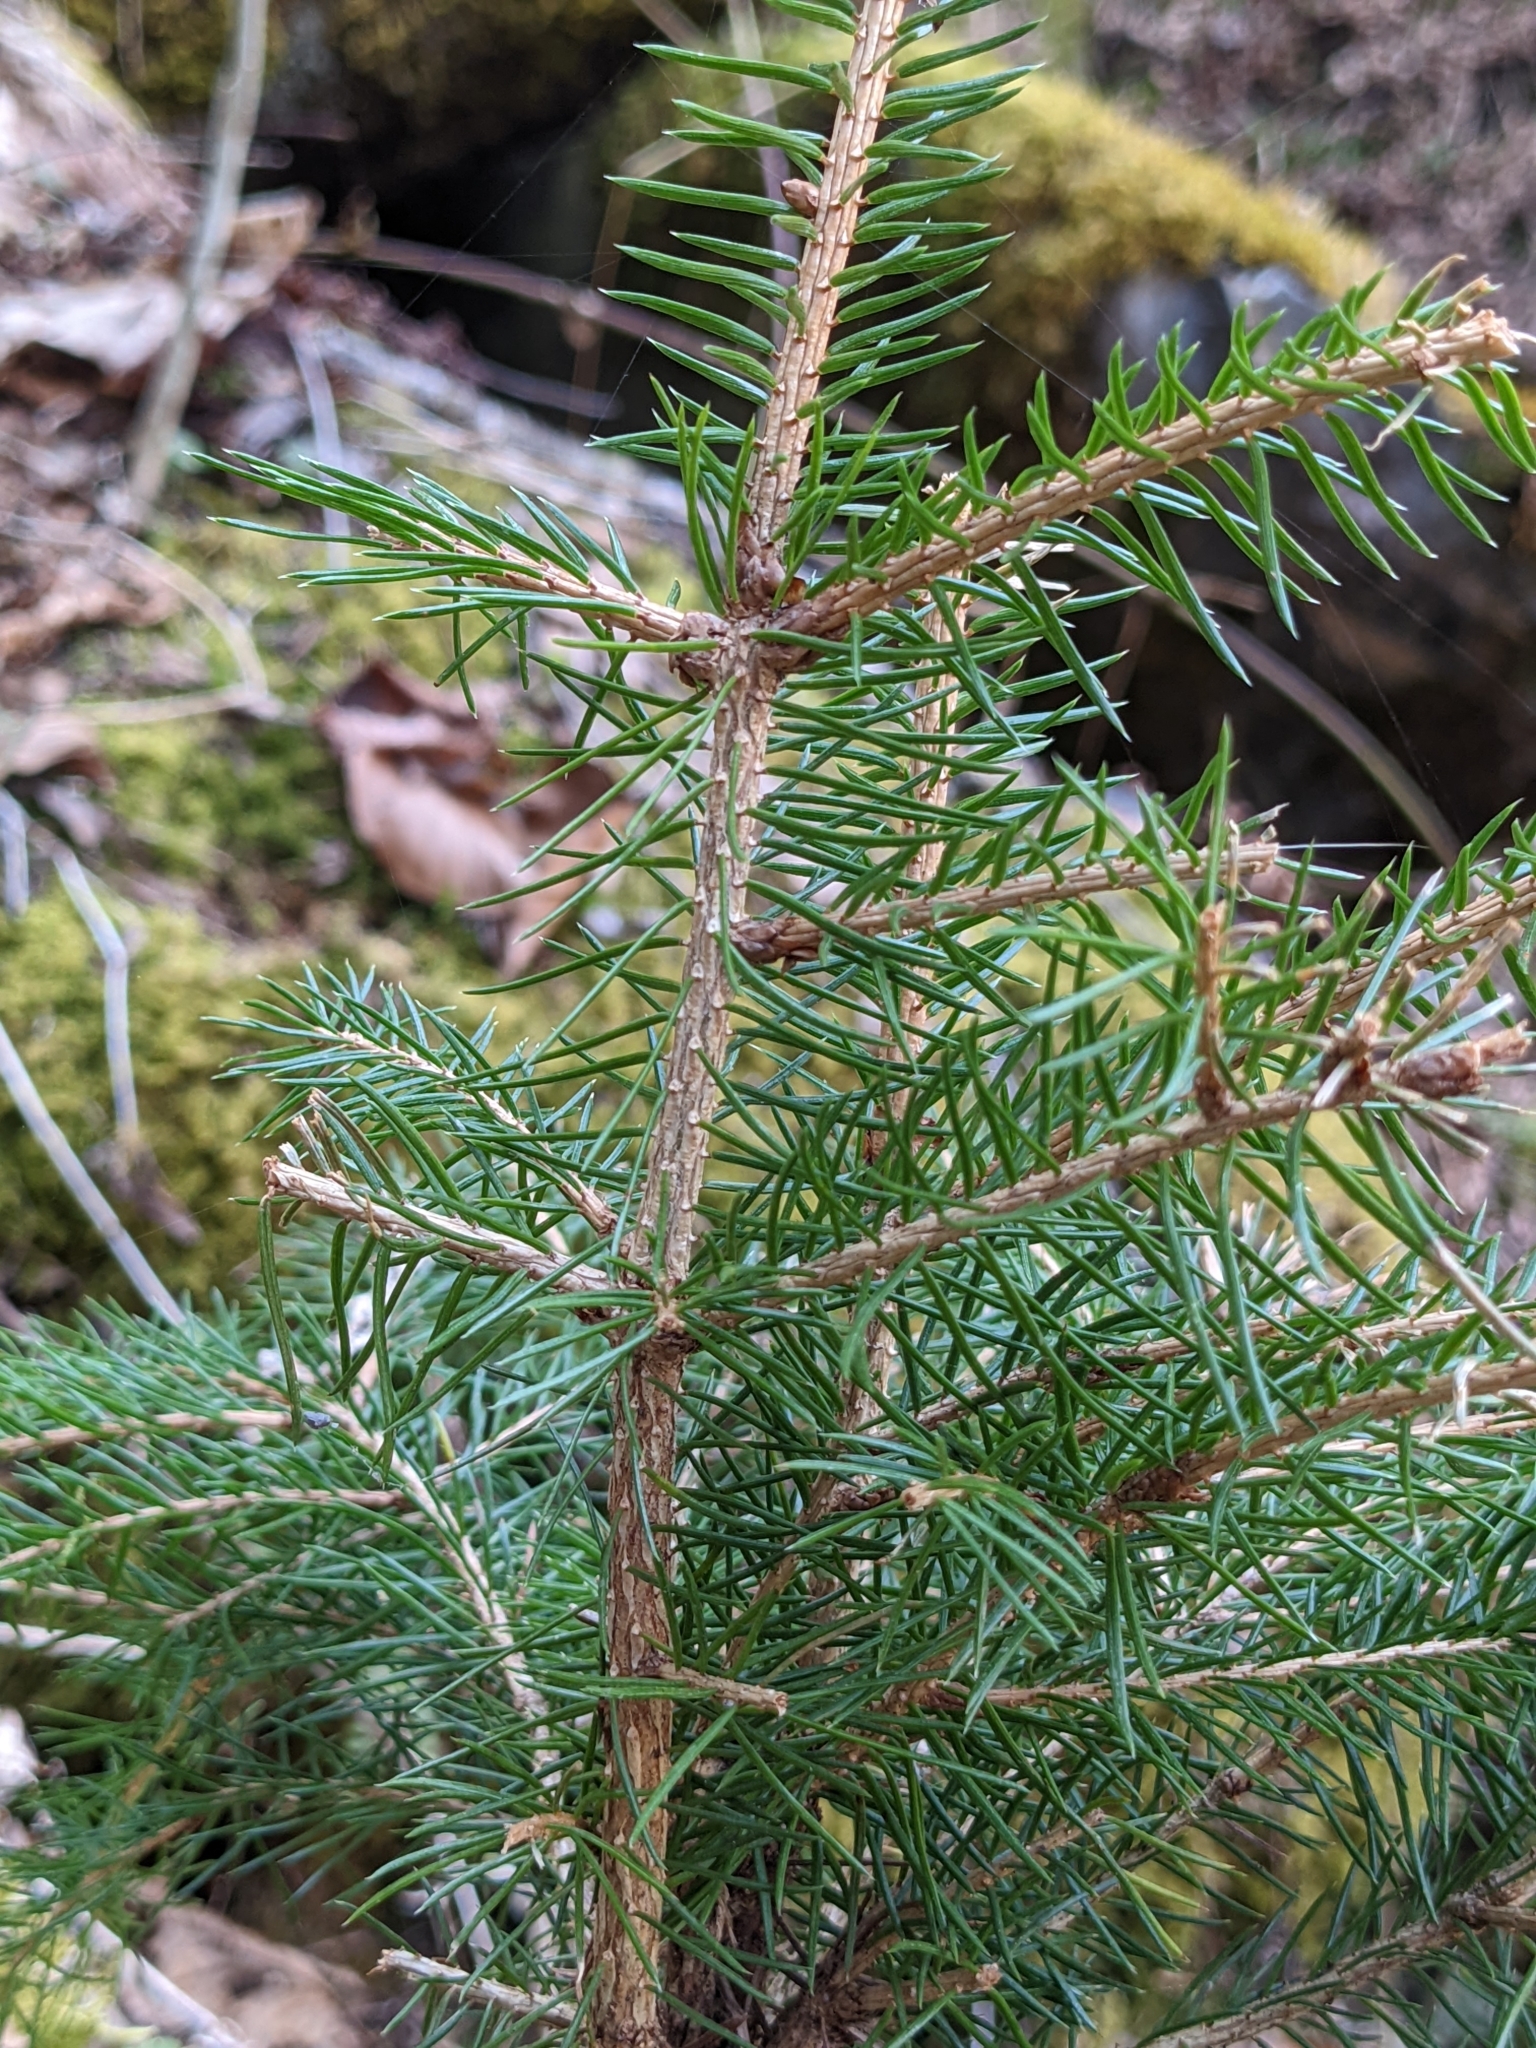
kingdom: Plantae
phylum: Tracheophyta
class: Pinopsida
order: Pinales
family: Pinaceae
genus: Picea
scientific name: Picea abies
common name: Norway spruce
